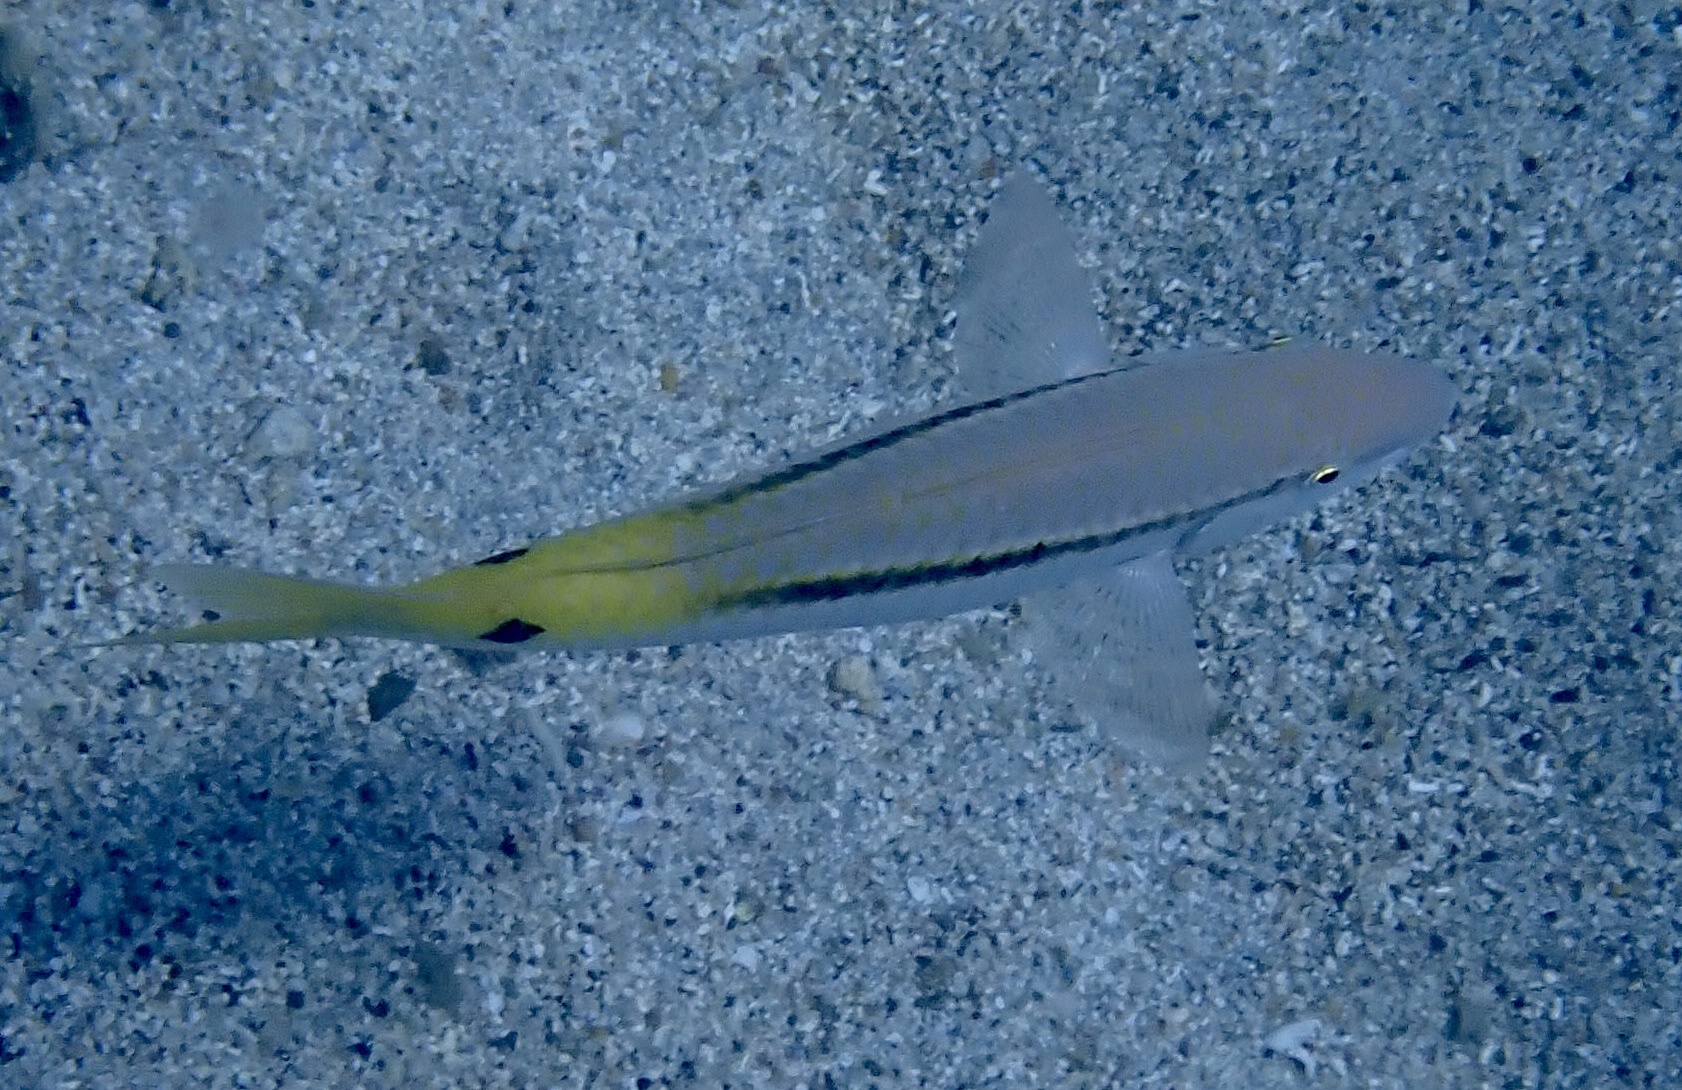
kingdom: Animalia
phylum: Chordata
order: Perciformes
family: Mullidae
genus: Parupeneus
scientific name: Parupeneus forsskali
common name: Red sea goatfish
